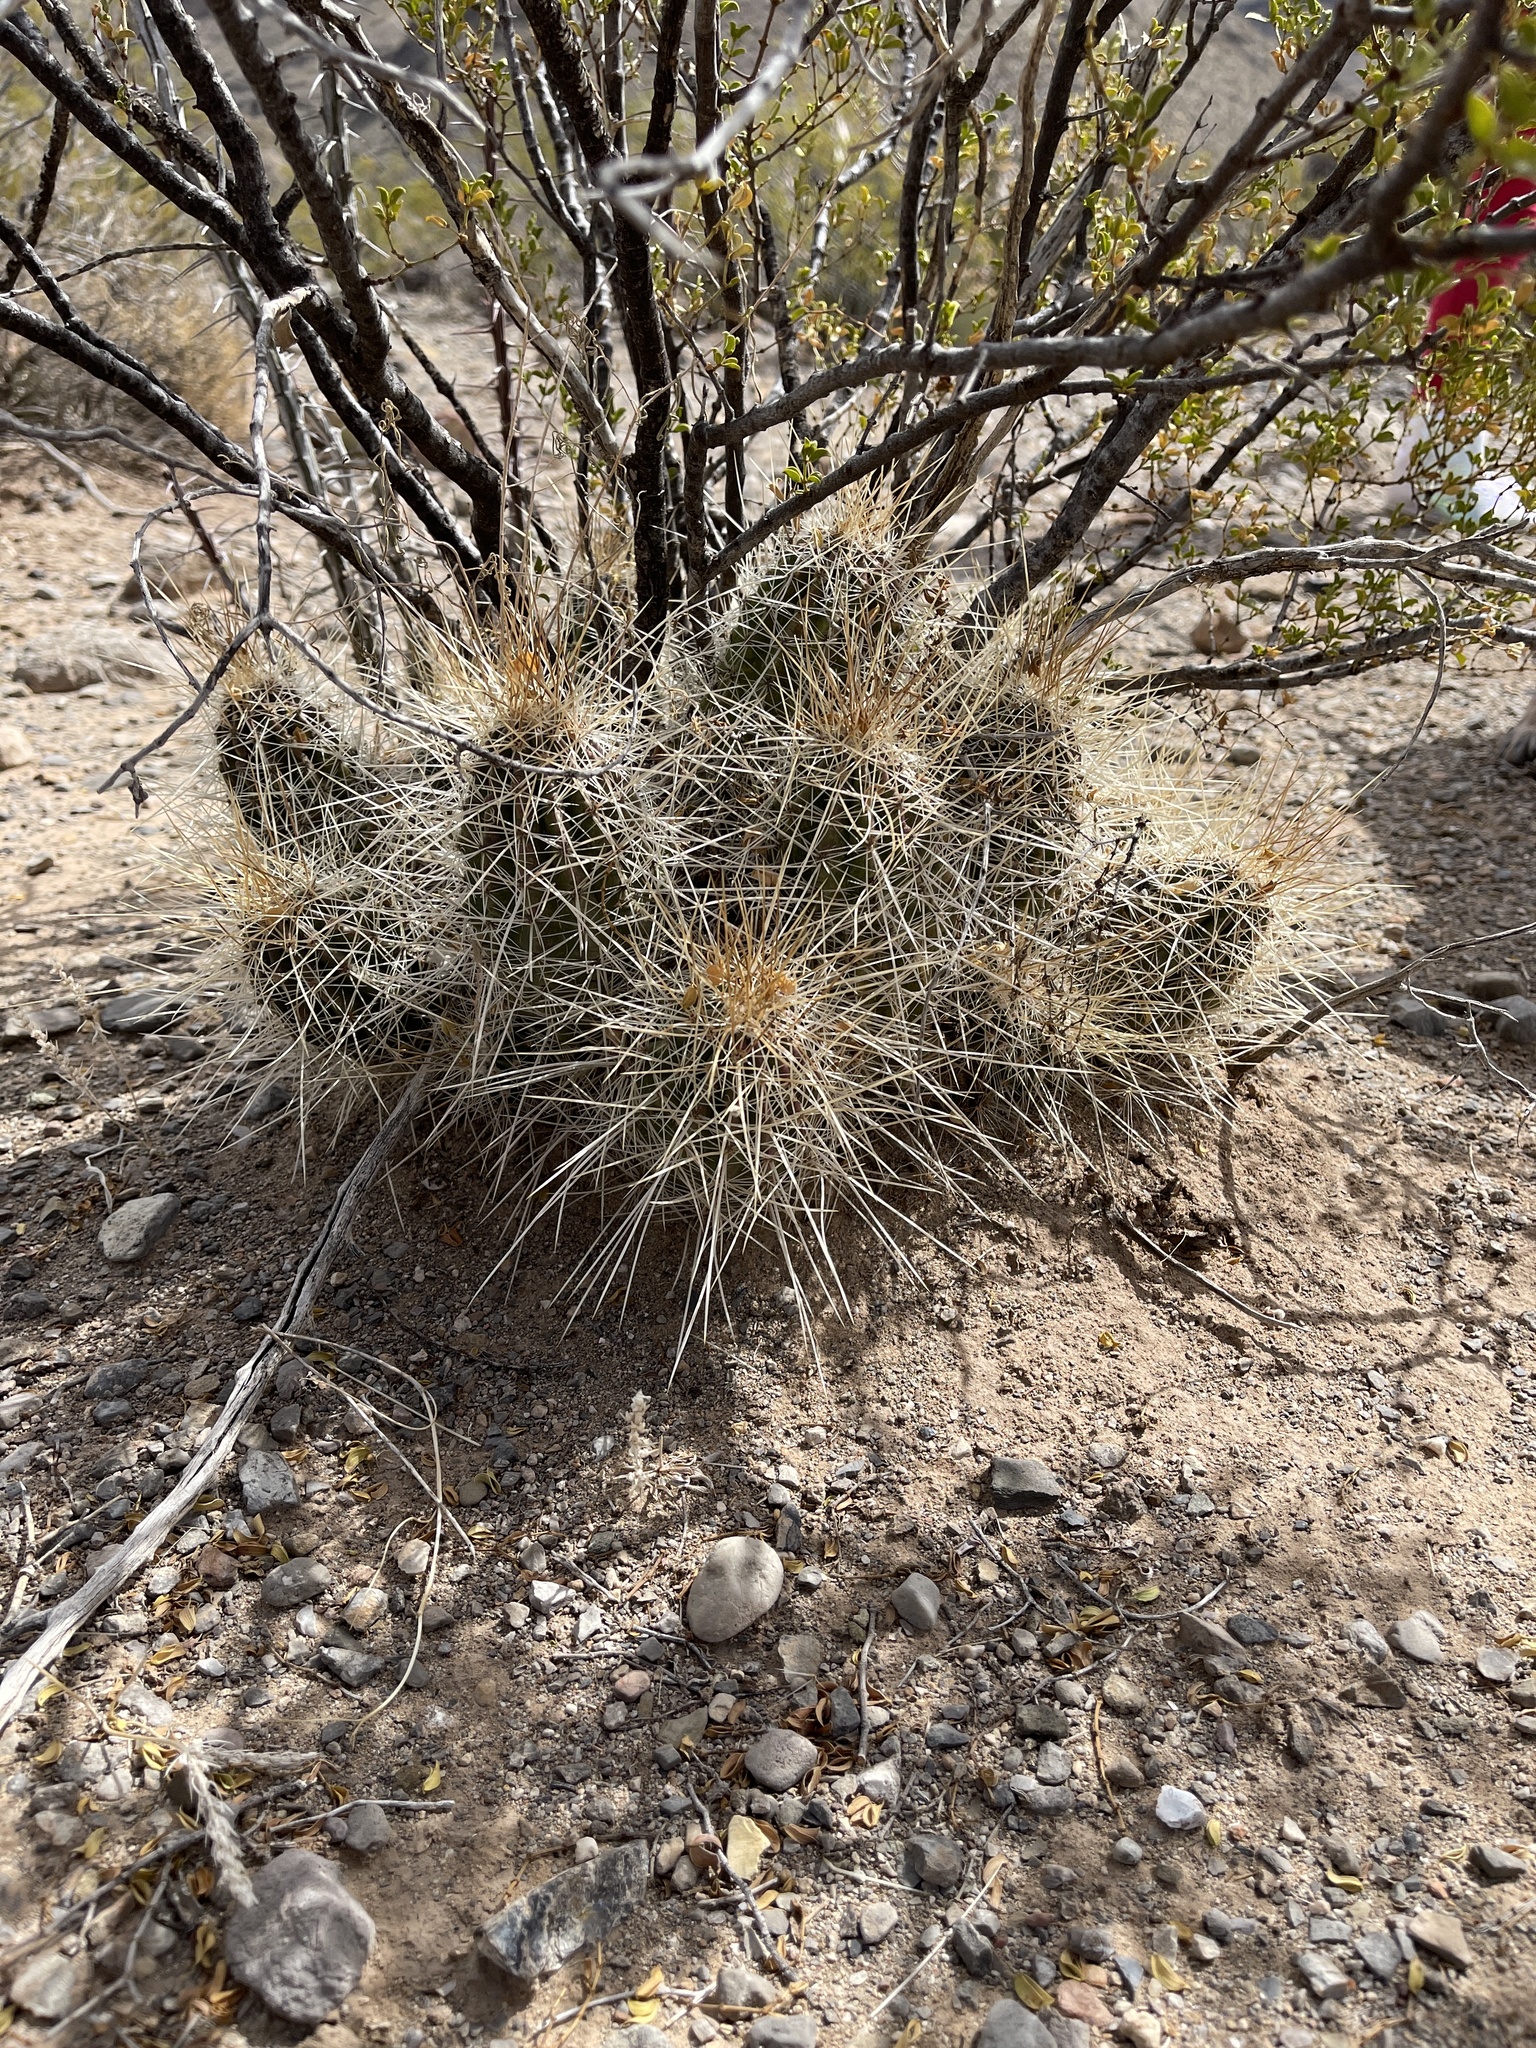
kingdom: Plantae
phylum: Tracheophyta
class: Magnoliopsida
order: Caryophyllales
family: Cactaceae
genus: Echinocereus
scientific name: Echinocereus stramineus
